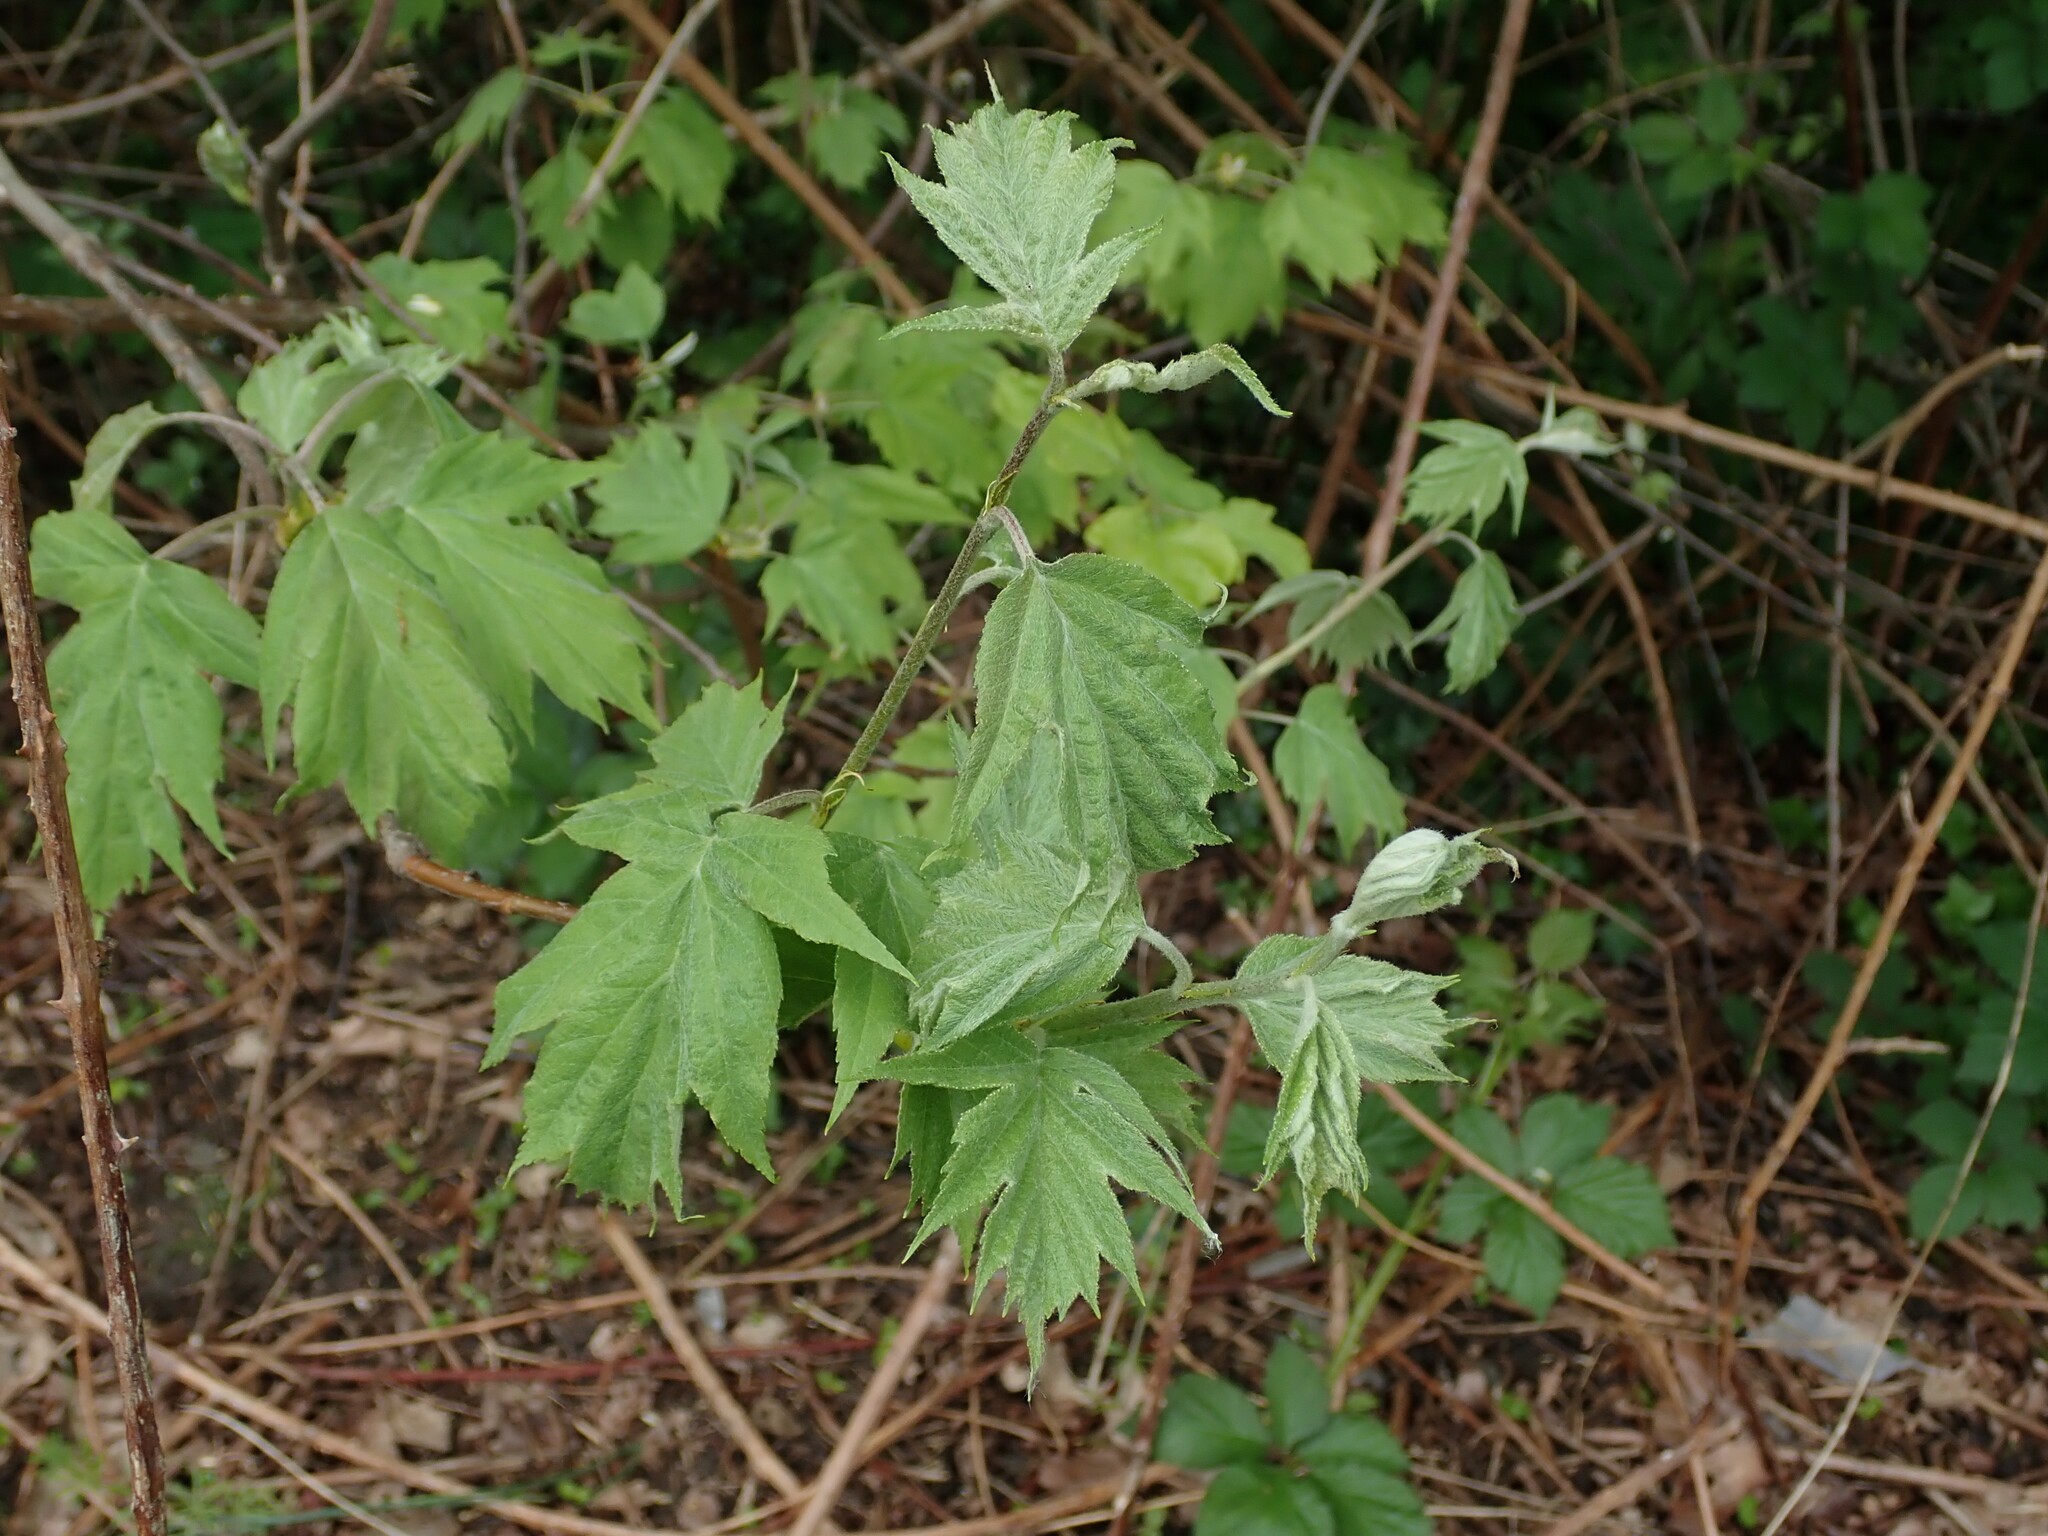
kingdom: Plantae
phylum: Tracheophyta
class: Magnoliopsida
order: Rosales
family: Rosaceae
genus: Torminalis
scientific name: Torminalis glaberrima
